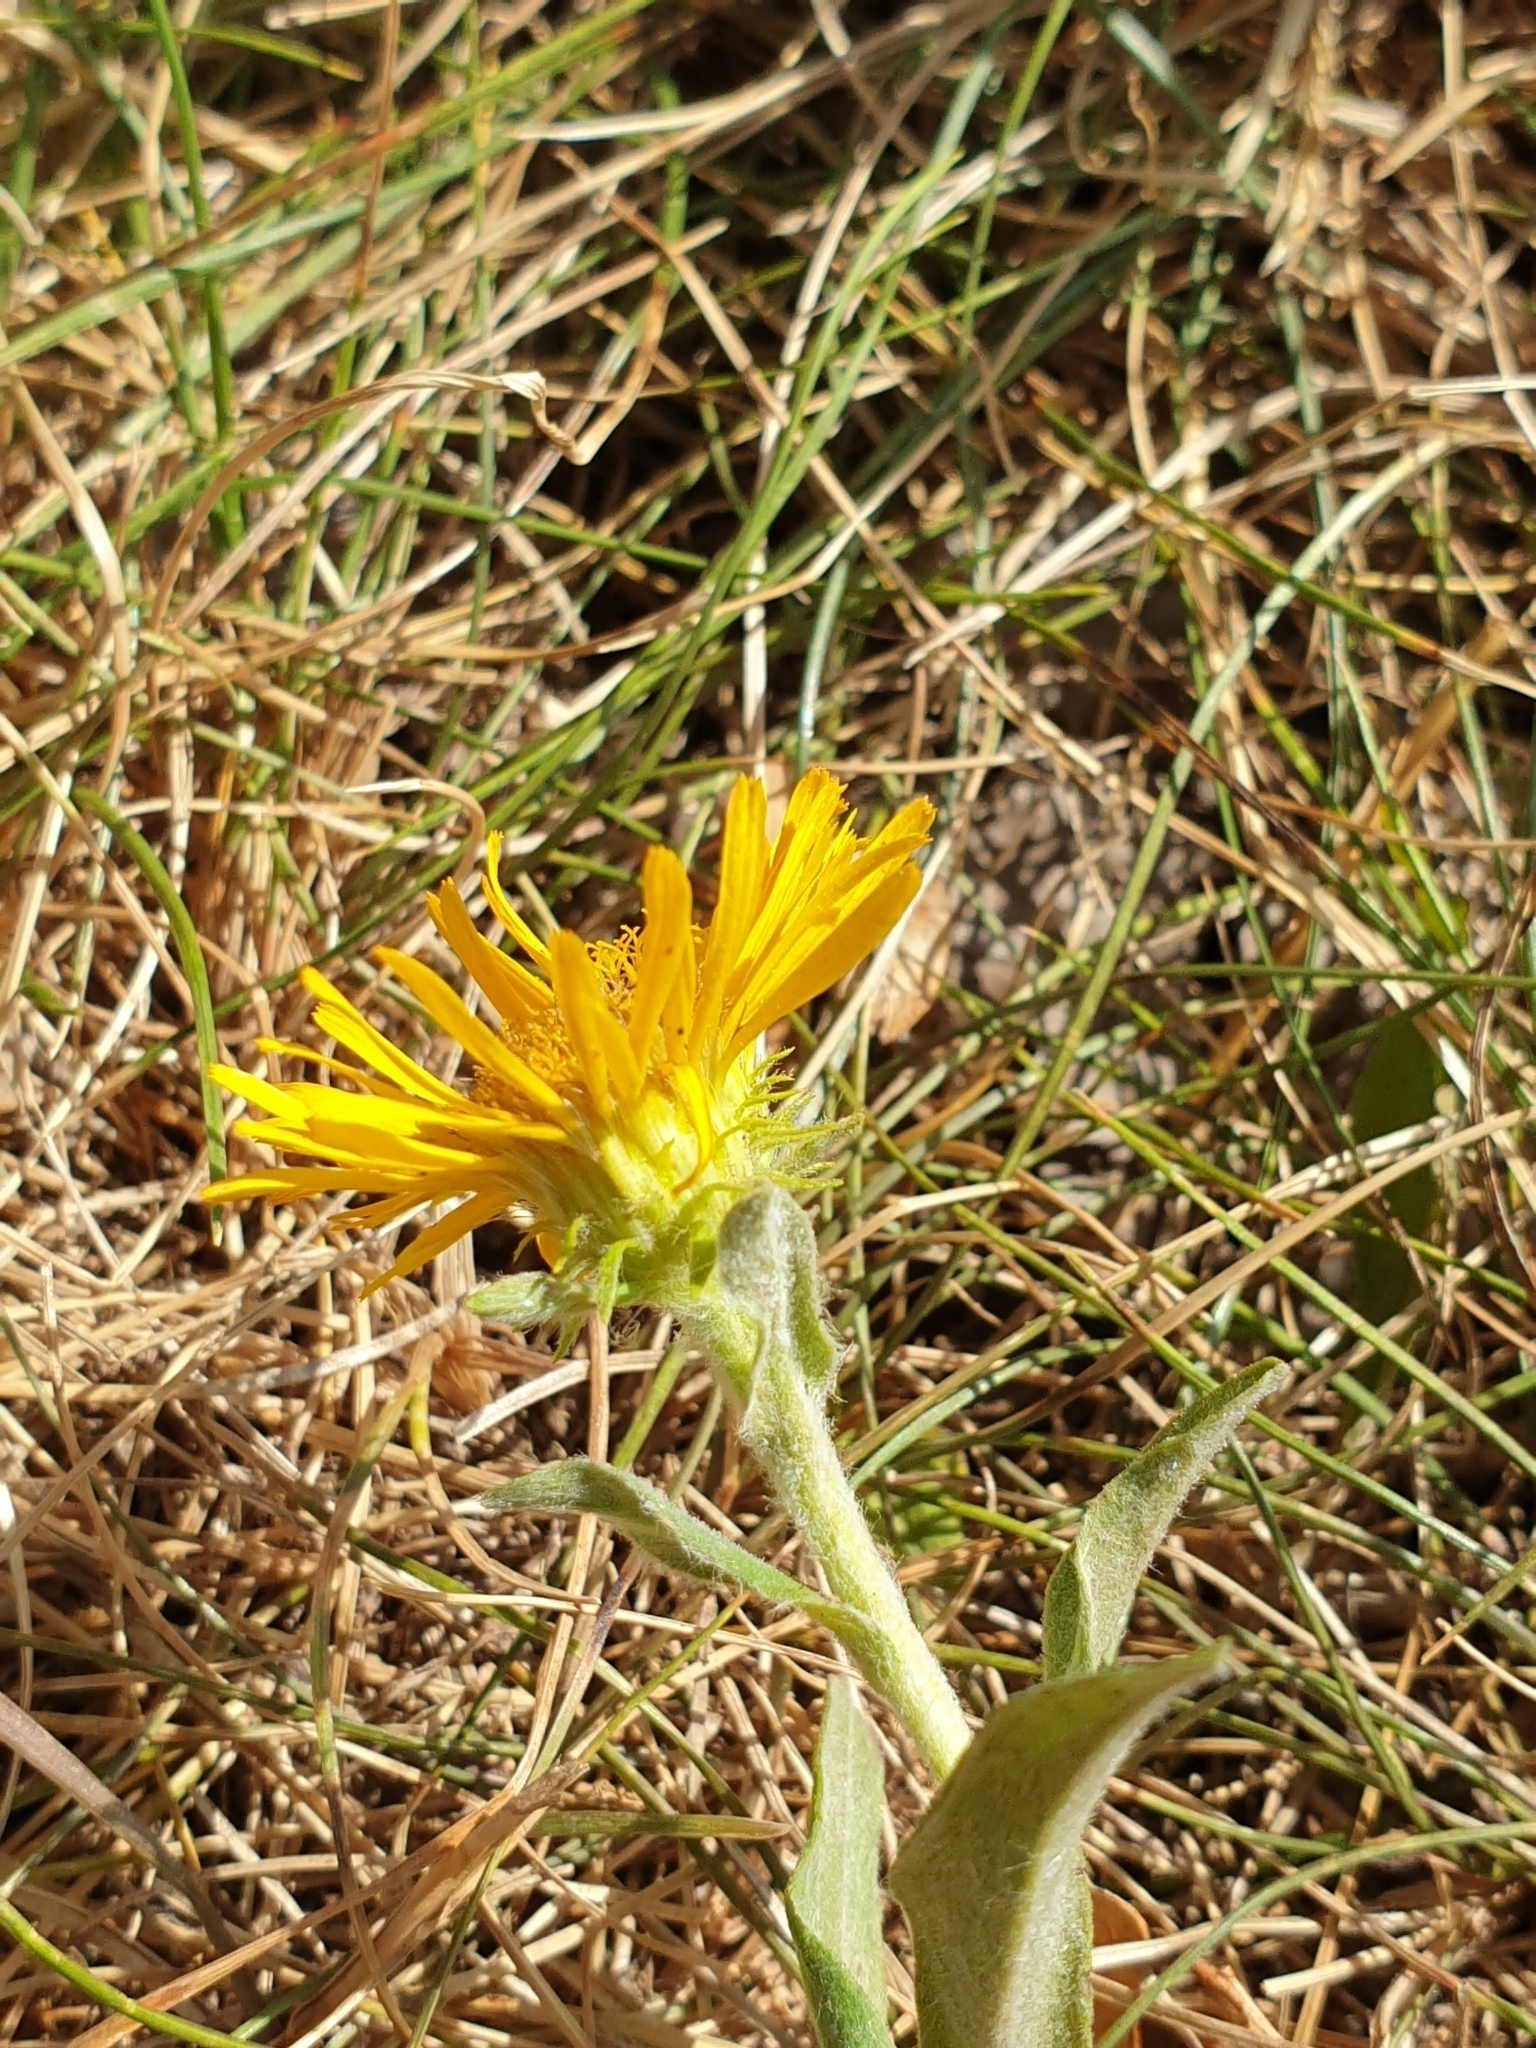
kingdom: Plantae
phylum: Tracheophyta
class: Magnoliopsida
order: Asterales
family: Asteraceae
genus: Pentanema
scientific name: Pentanema britannicum
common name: British elecampane
